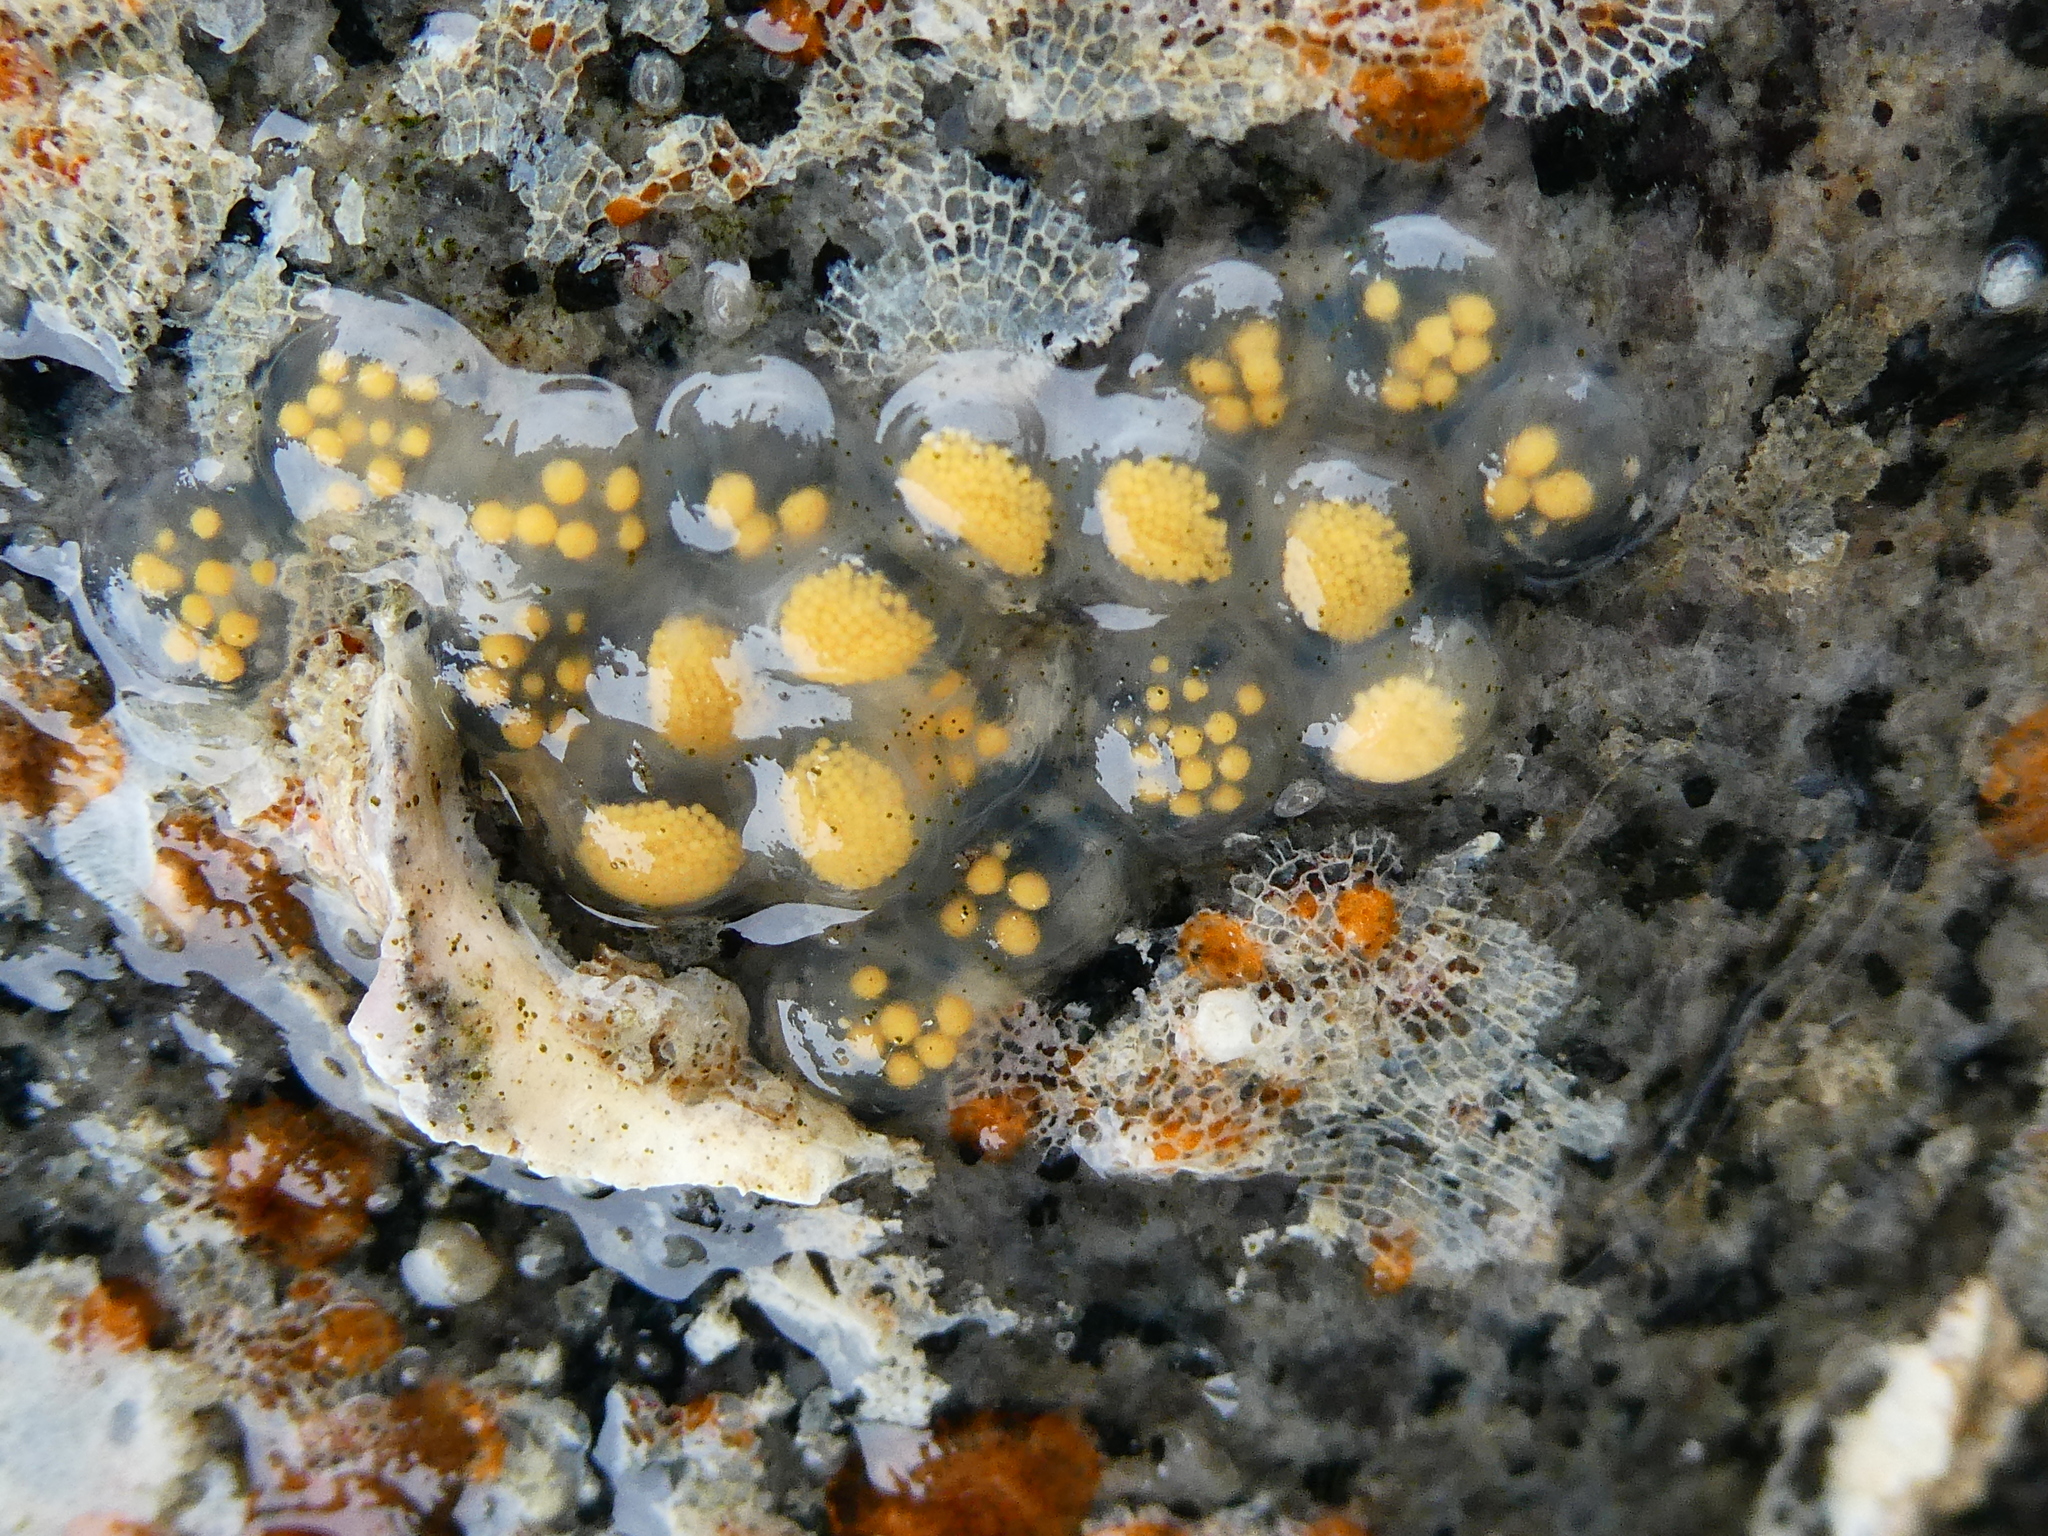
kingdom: Animalia
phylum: Mollusca
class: Gastropoda
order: Neogastropoda
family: Tudiclidae
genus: Lirabuccinum
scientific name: Lirabuccinum dirum
